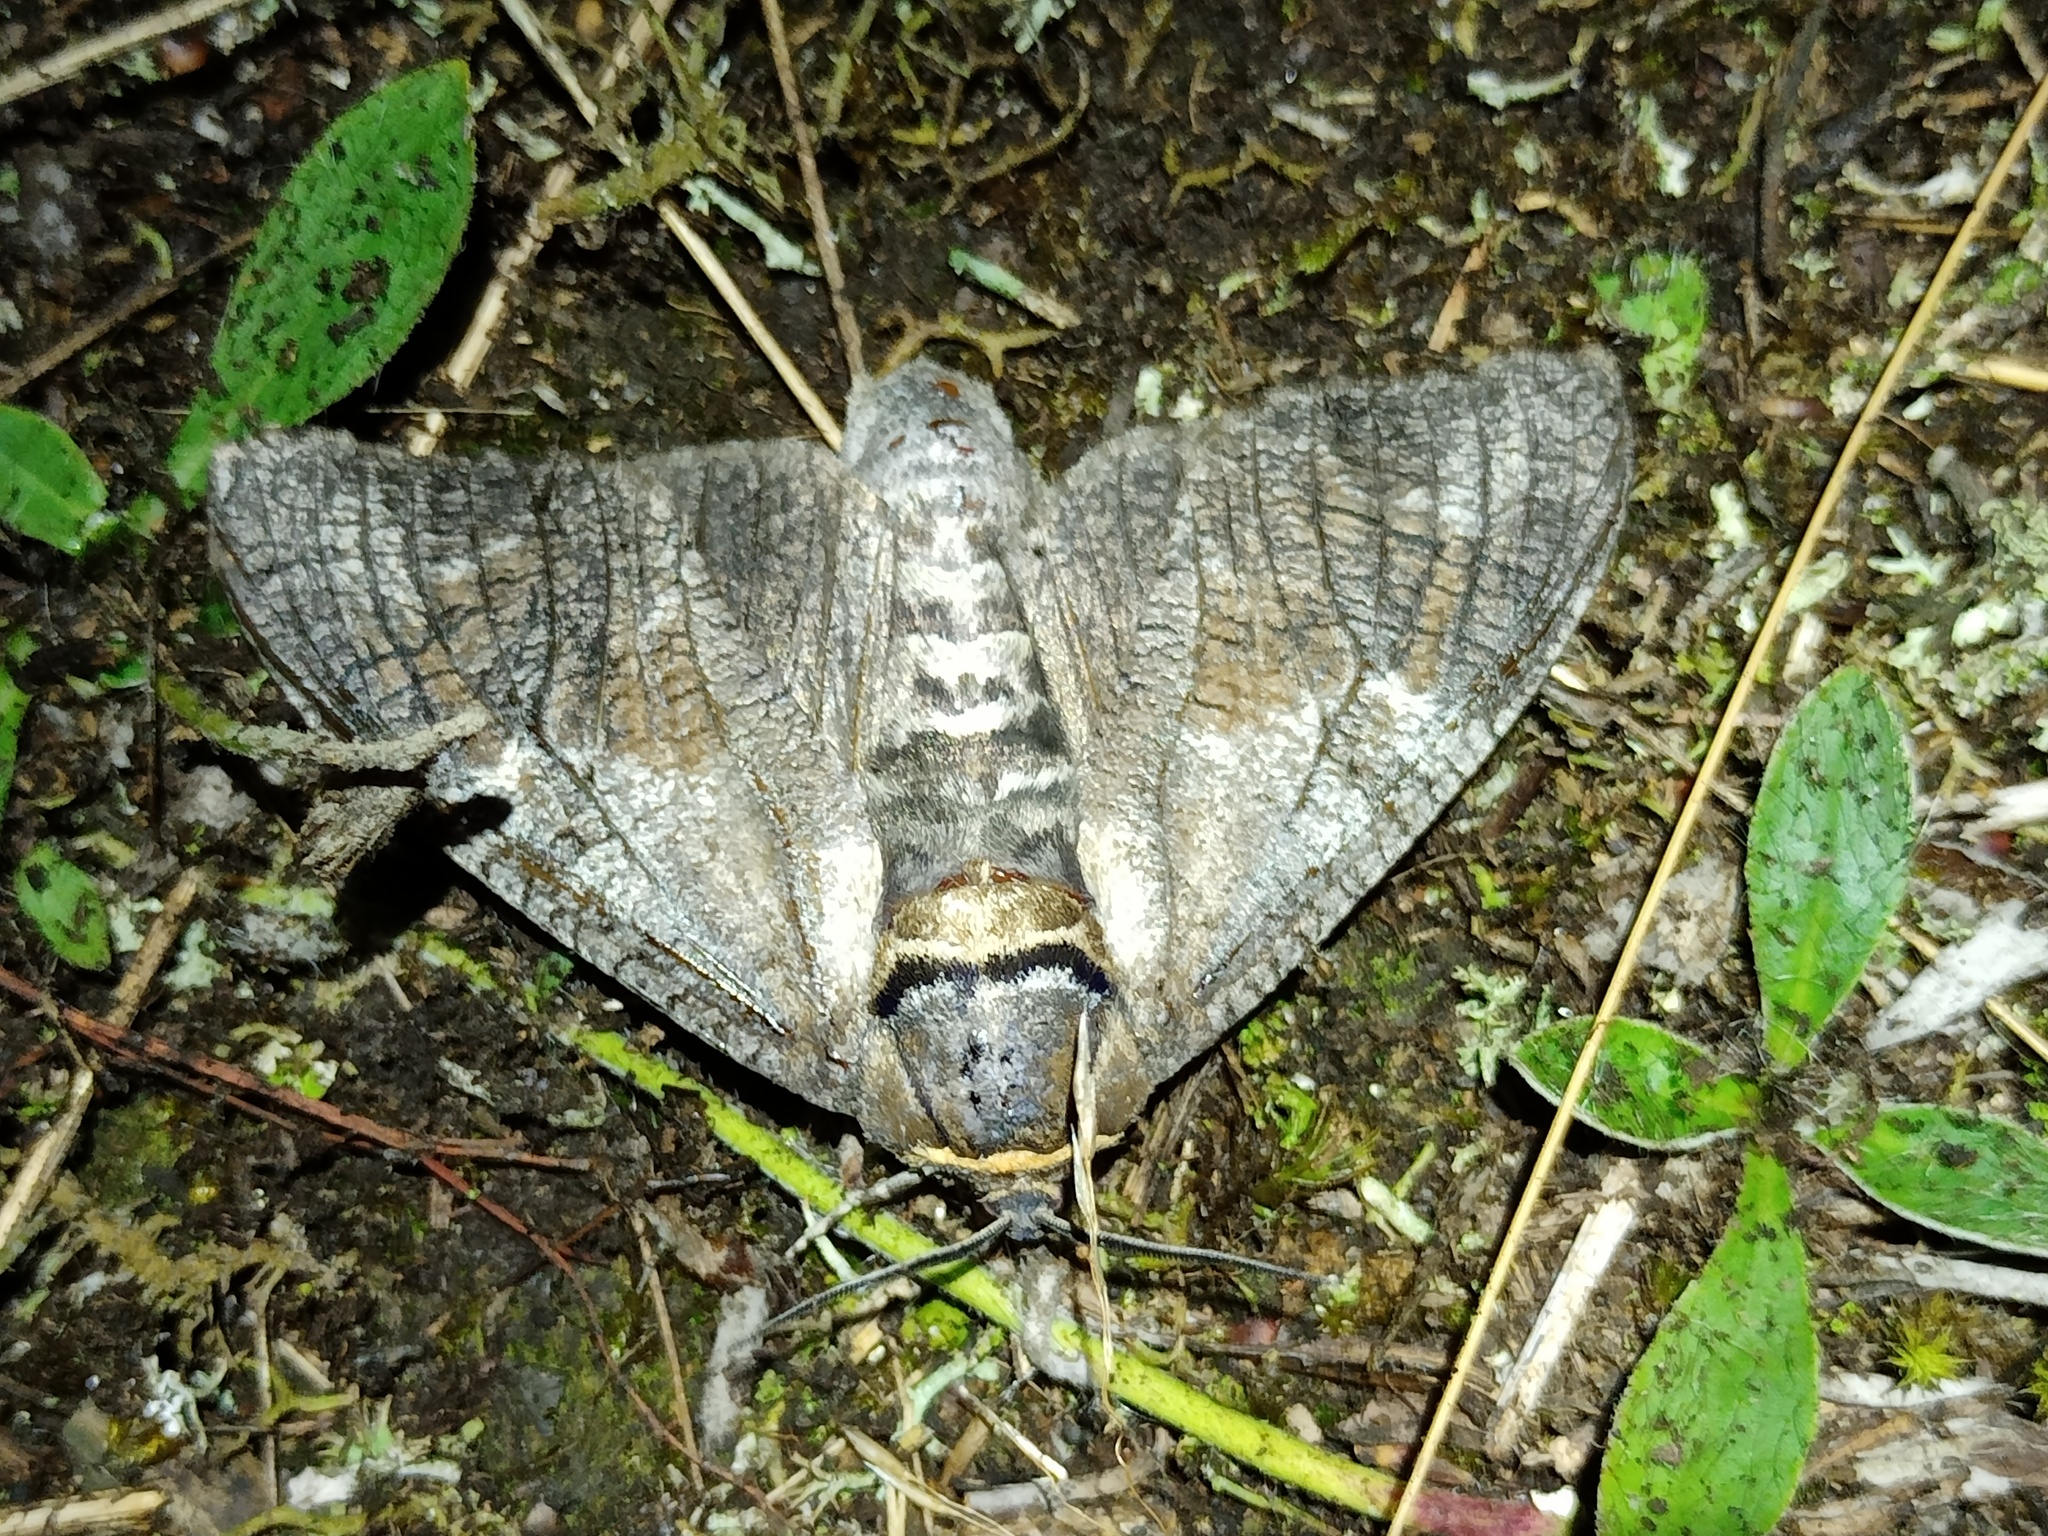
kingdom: Animalia
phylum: Arthropoda
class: Insecta
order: Lepidoptera
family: Cossidae
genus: Cossus
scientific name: Cossus cossus
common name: Goat moth
